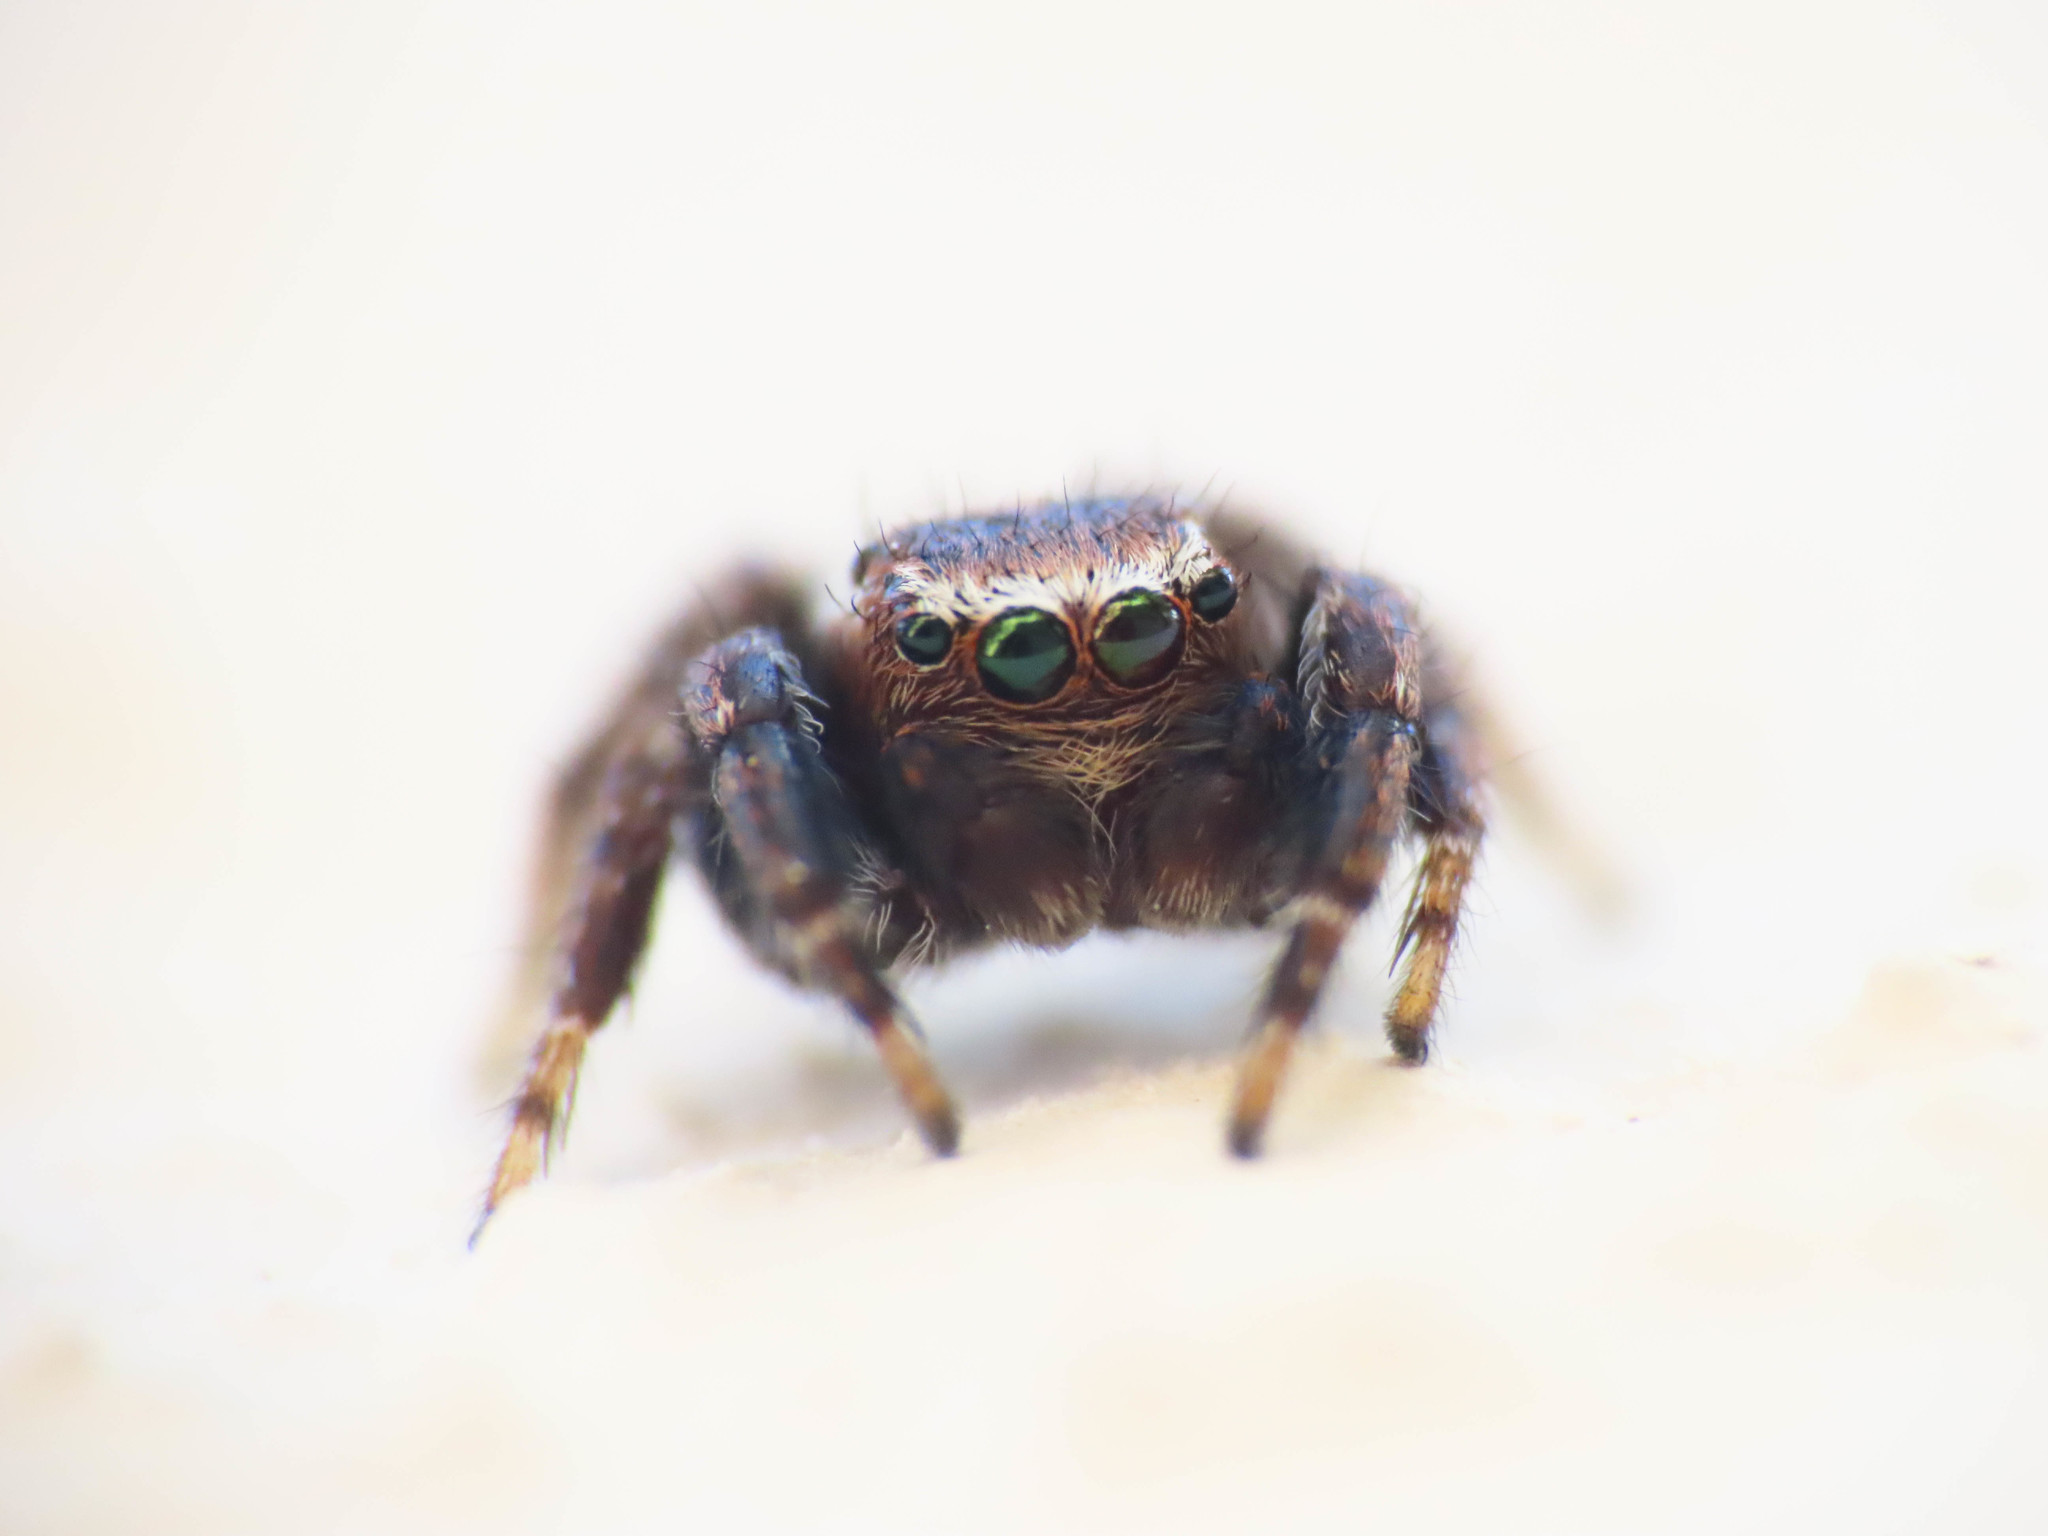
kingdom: Animalia
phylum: Arthropoda
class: Arachnida
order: Araneae
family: Salticidae
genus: Evarcha
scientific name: Evarcha michailovi
